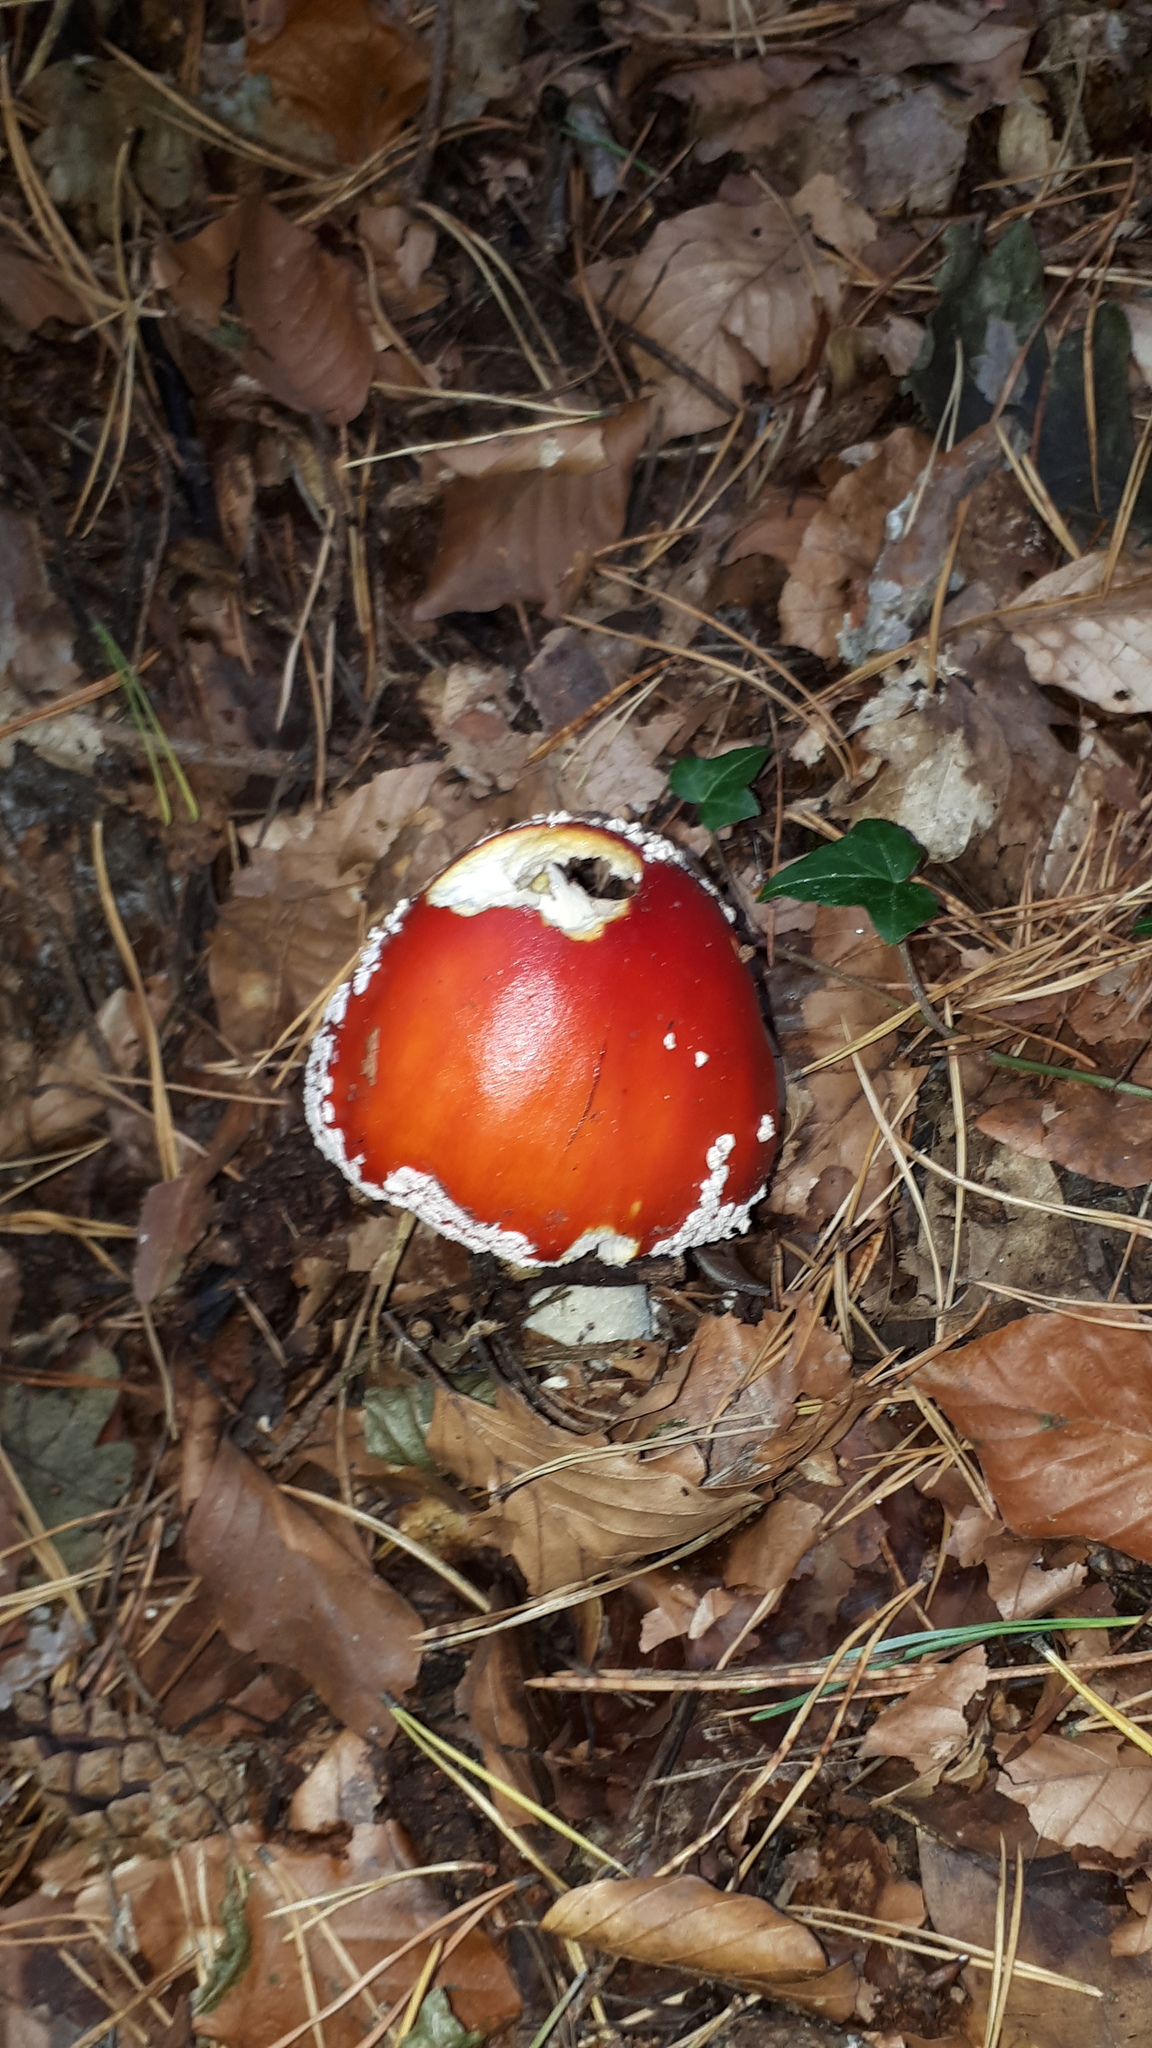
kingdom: Fungi
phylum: Basidiomycota
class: Agaricomycetes
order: Agaricales
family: Amanitaceae
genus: Amanita
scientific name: Amanita muscaria
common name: Fly agaric
